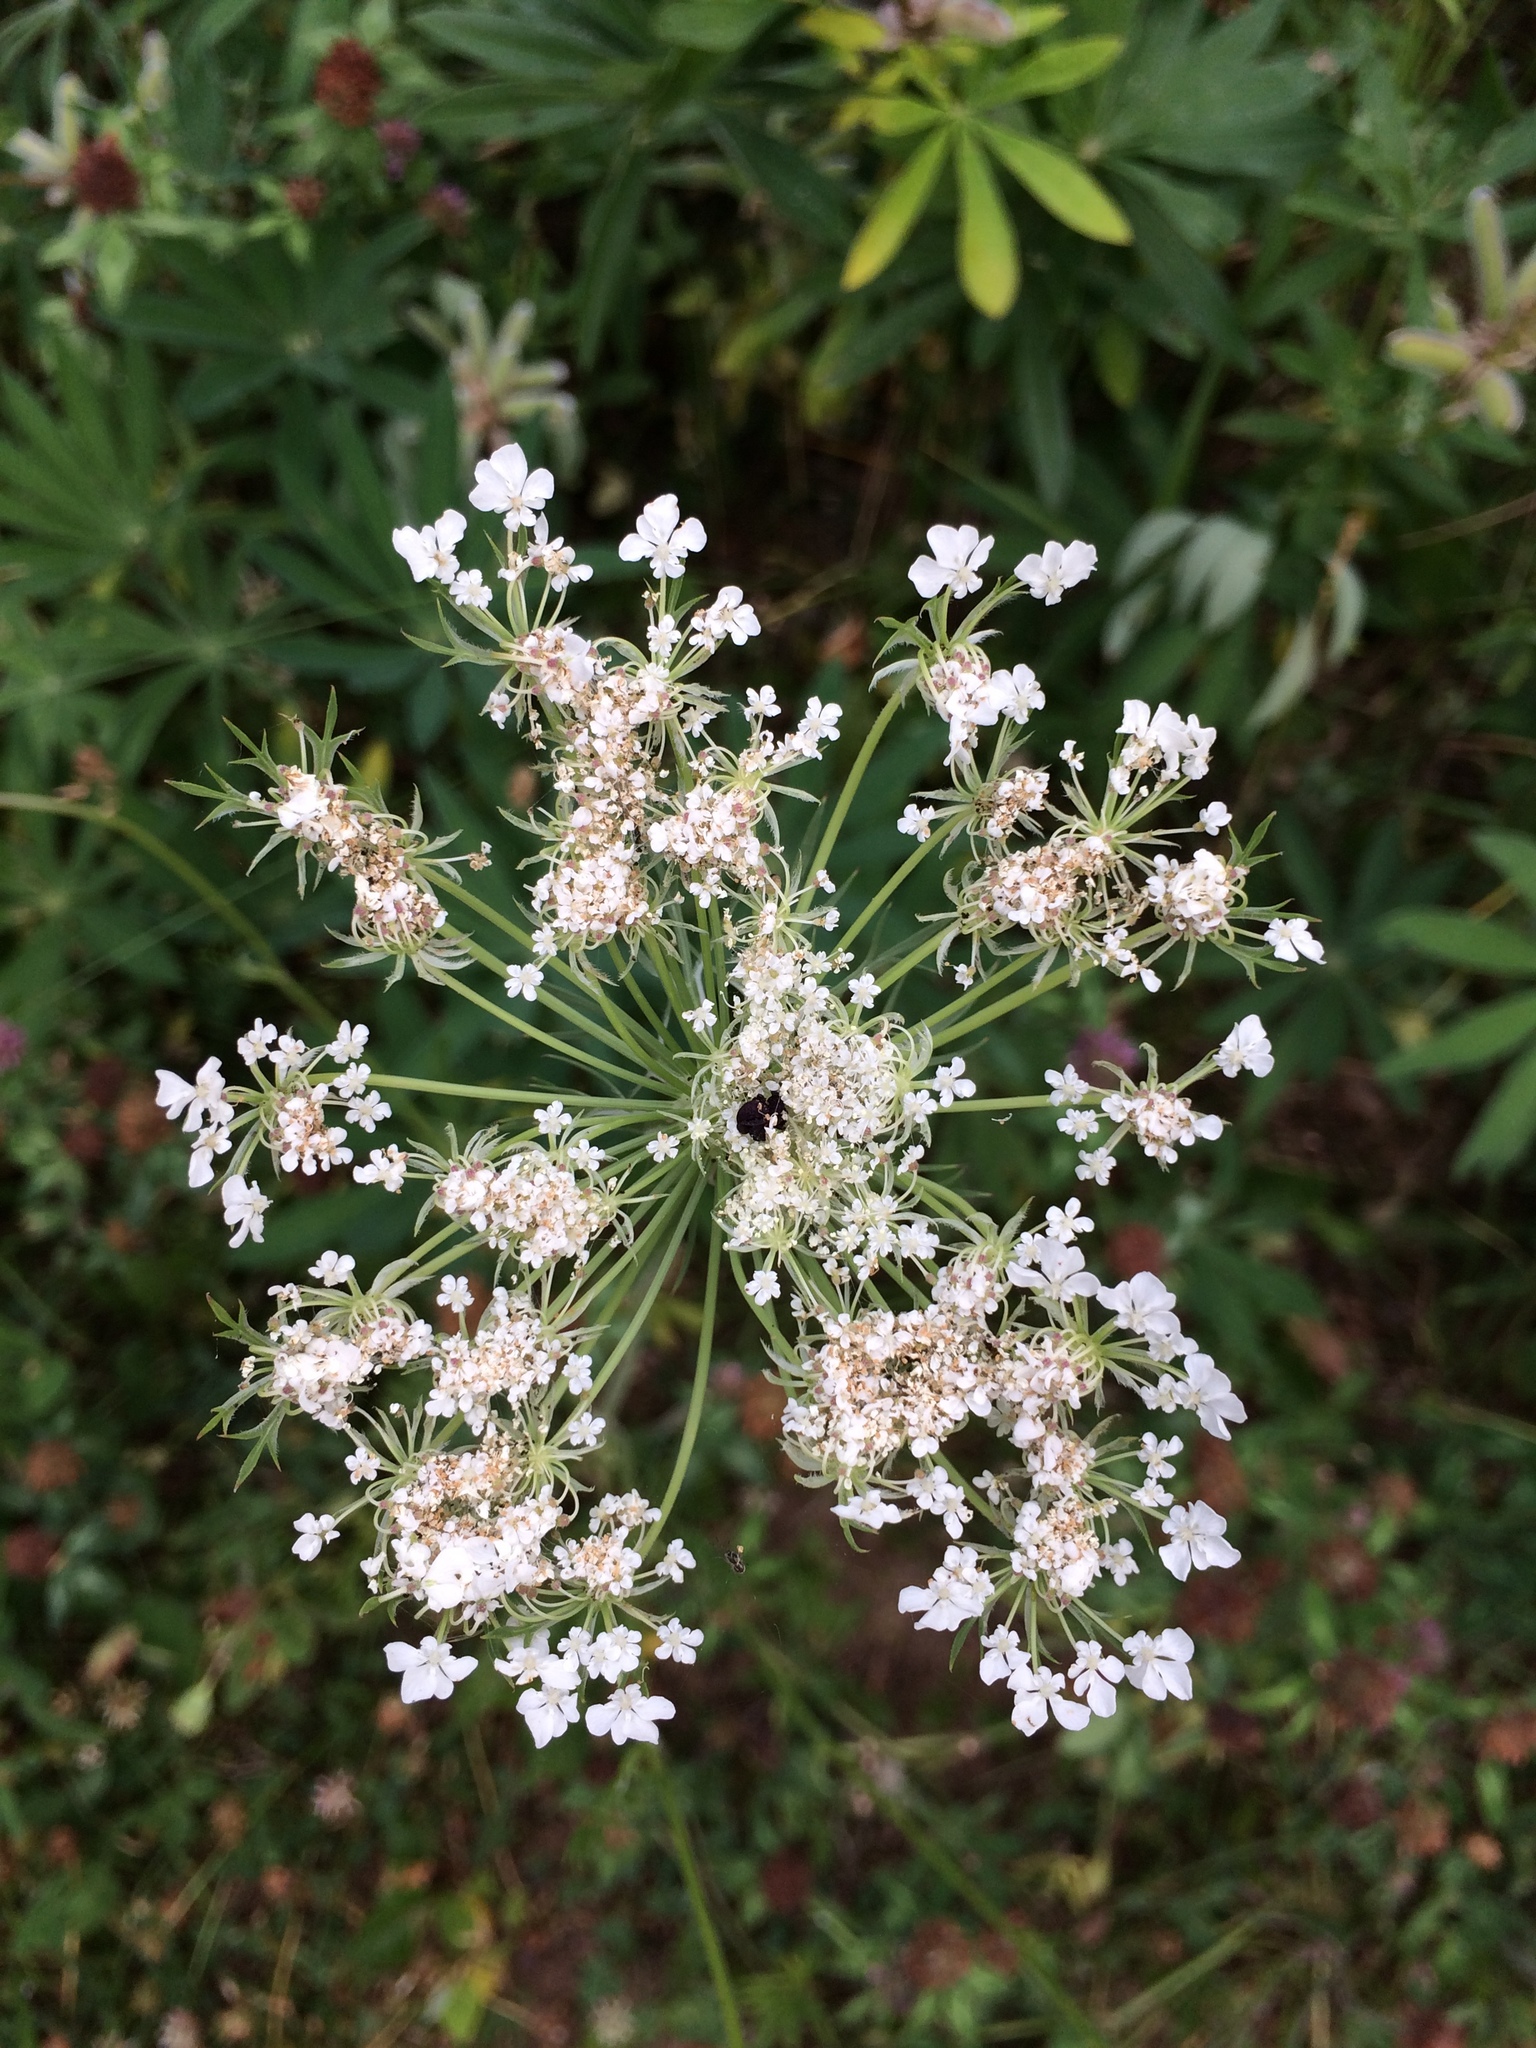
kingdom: Plantae
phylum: Tracheophyta
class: Magnoliopsida
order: Apiales
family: Apiaceae
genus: Daucus
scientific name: Daucus carota
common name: Wild carrot
